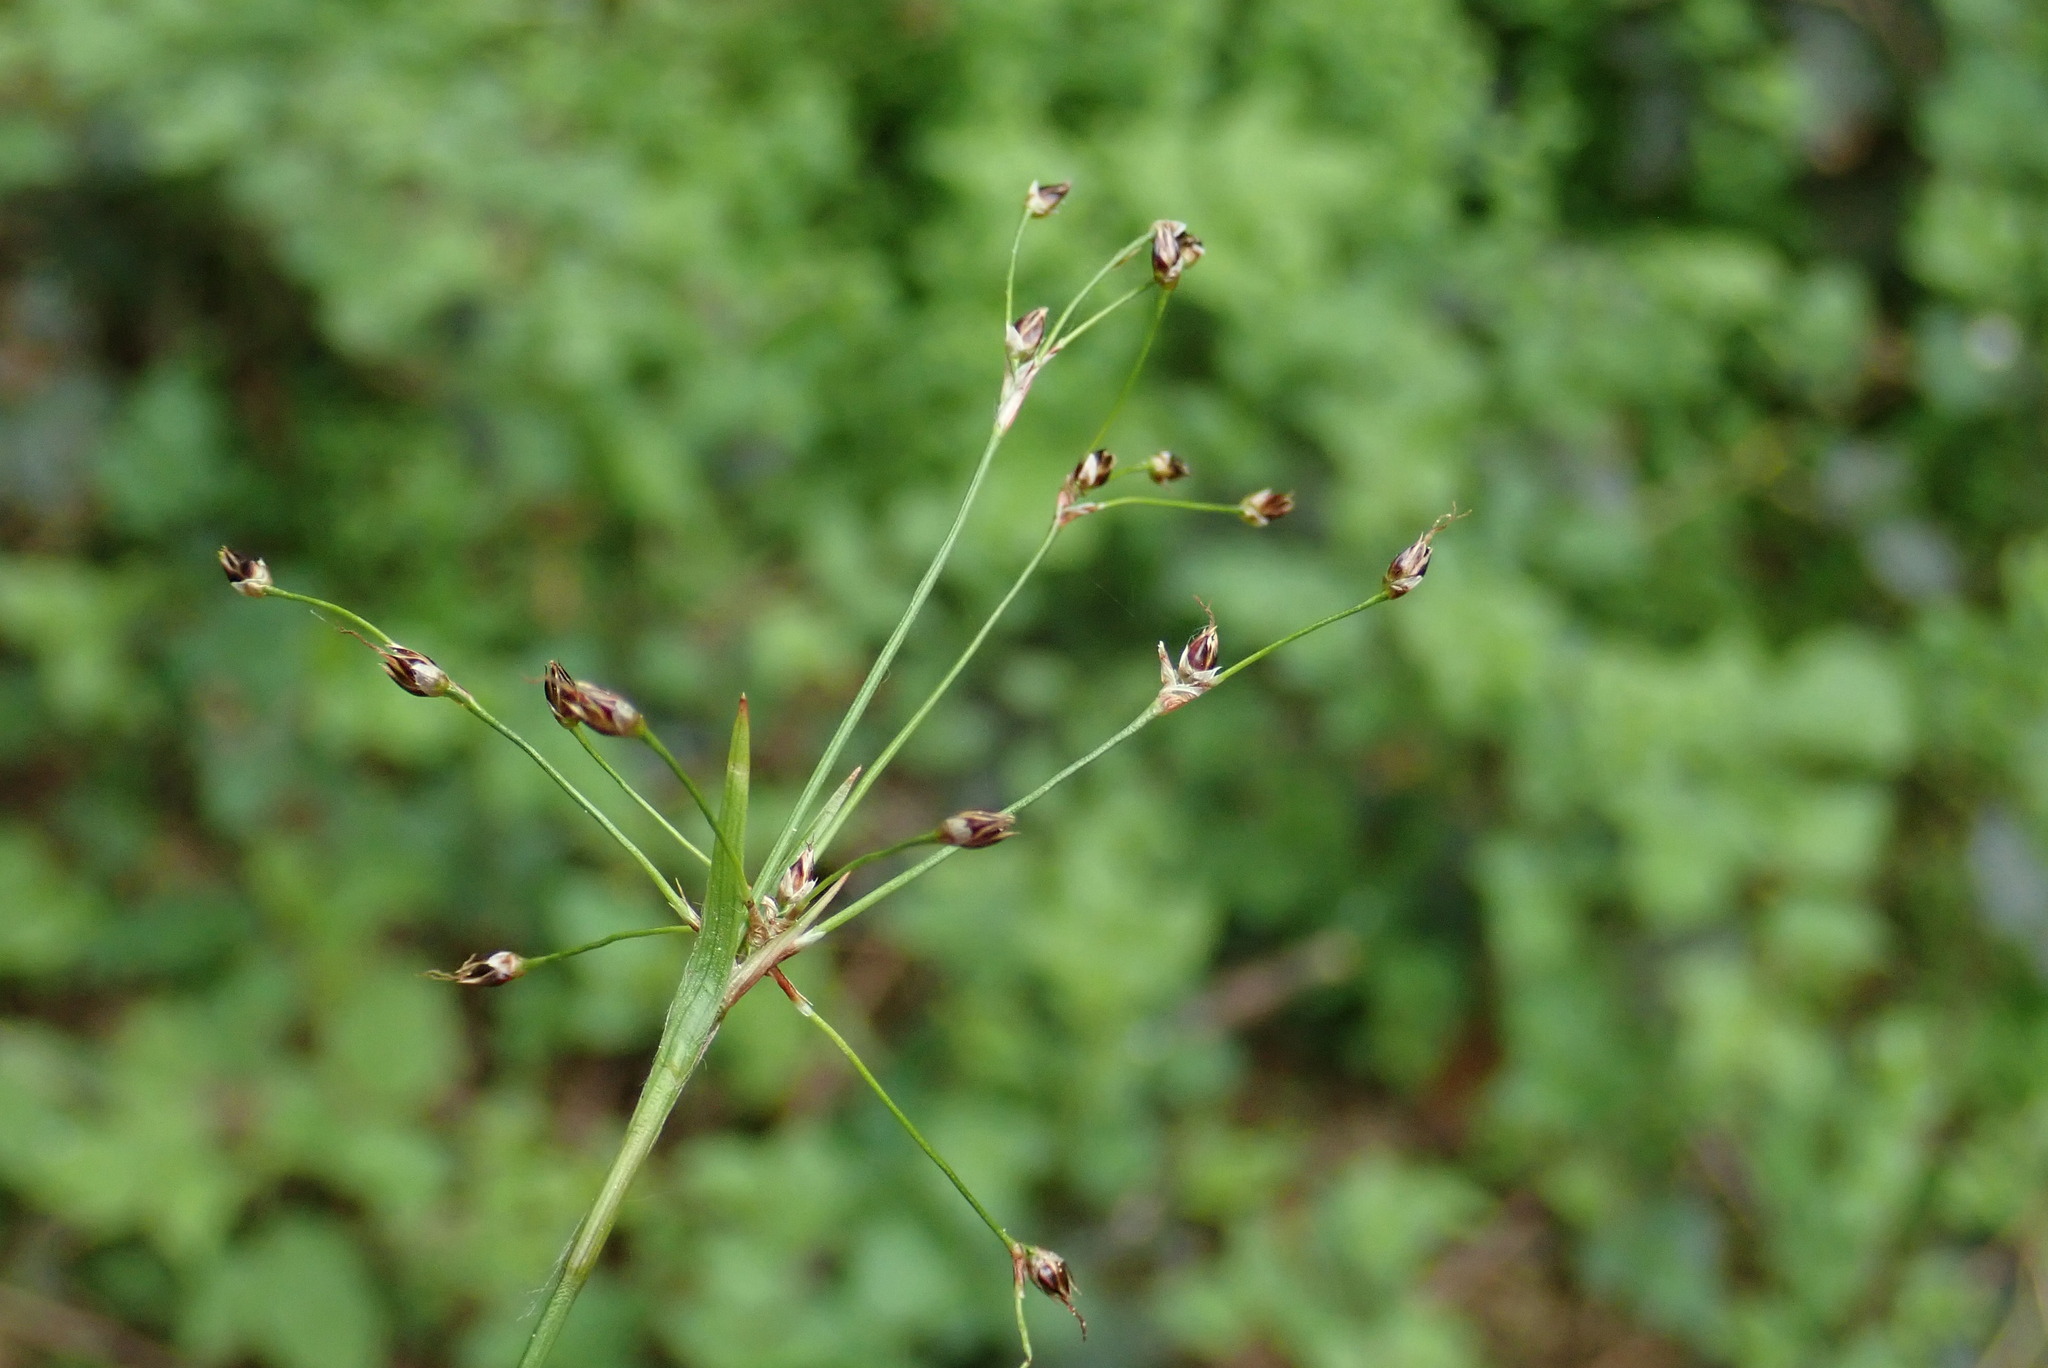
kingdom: Plantae
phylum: Tracheophyta
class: Liliopsida
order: Poales
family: Juncaceae
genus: Luzula
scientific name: Luzula pilosa
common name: Hairy wood-rush
